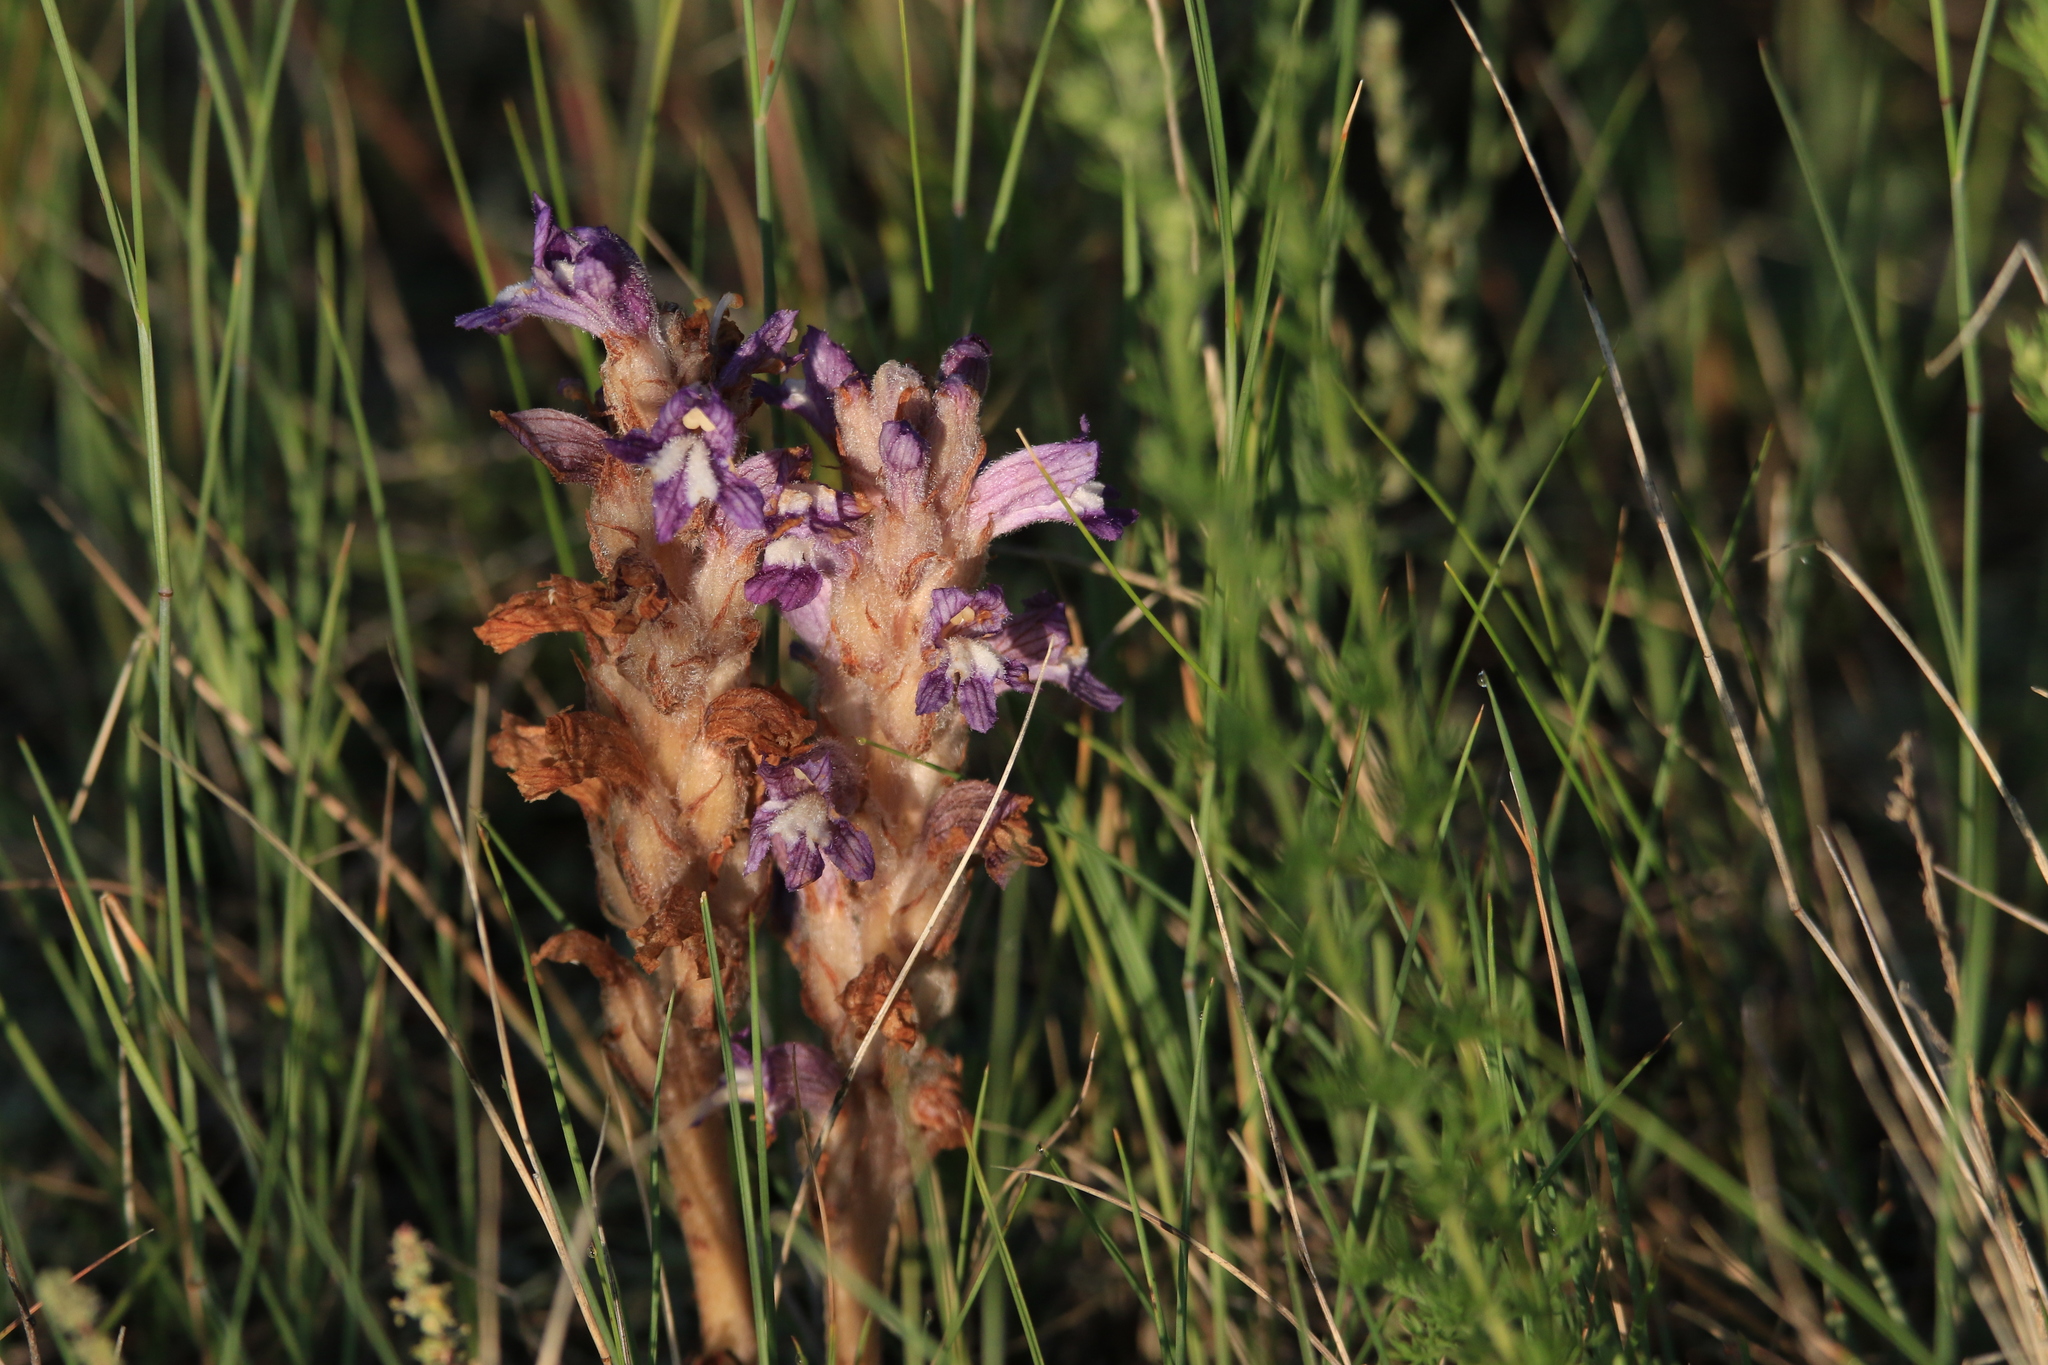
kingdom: Plantae
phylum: Tracheophyta
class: Magnoliopsida
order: Lamiales
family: Orobanchaceae
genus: Phelipanche
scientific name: Phelipanche caesia
